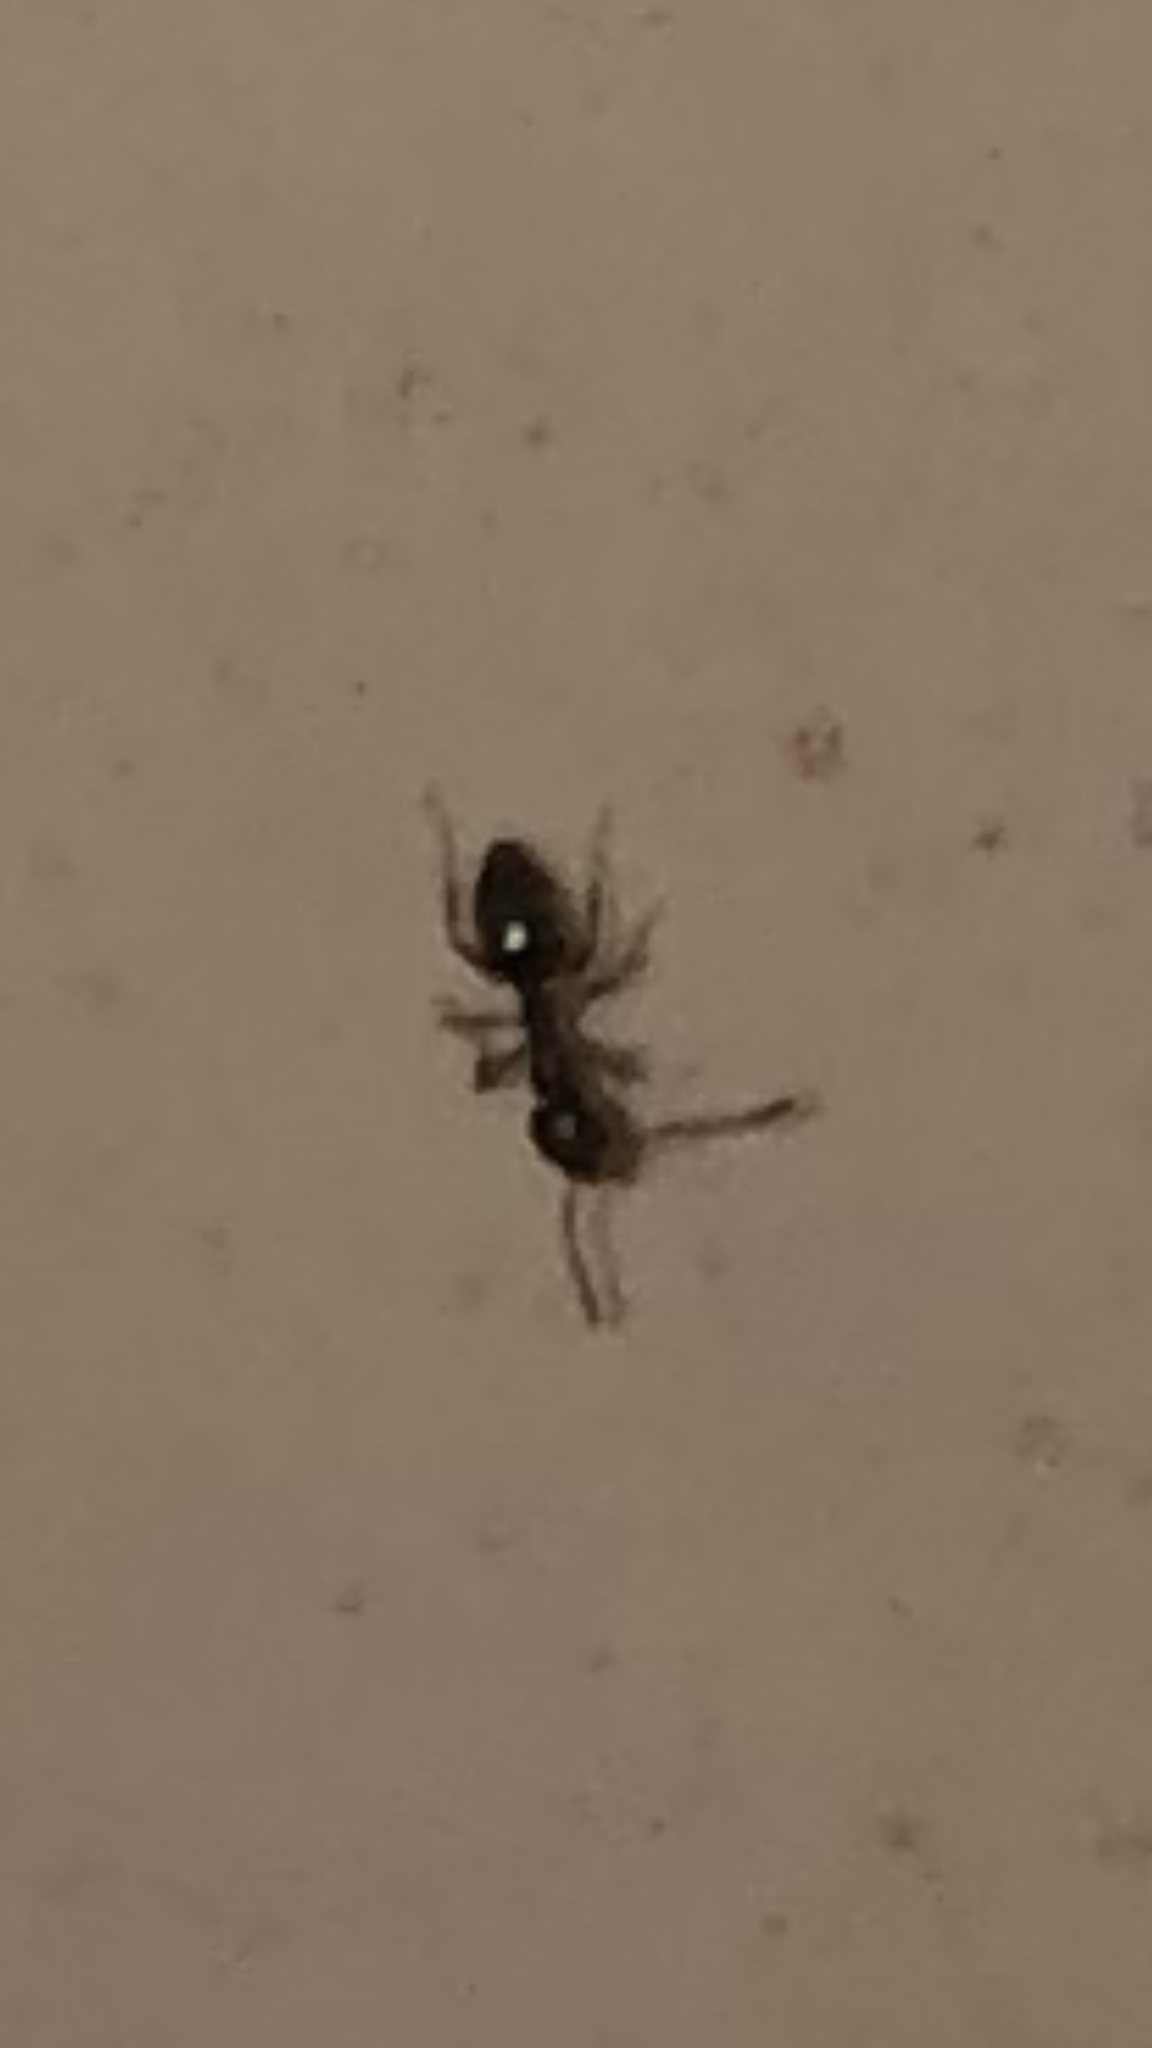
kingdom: Animalia
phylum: Arthropoda
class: Insecta
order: Hymenoptera
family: Formicidae
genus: Tapinoma
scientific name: Tapinoma sessile
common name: Odorous house ant
